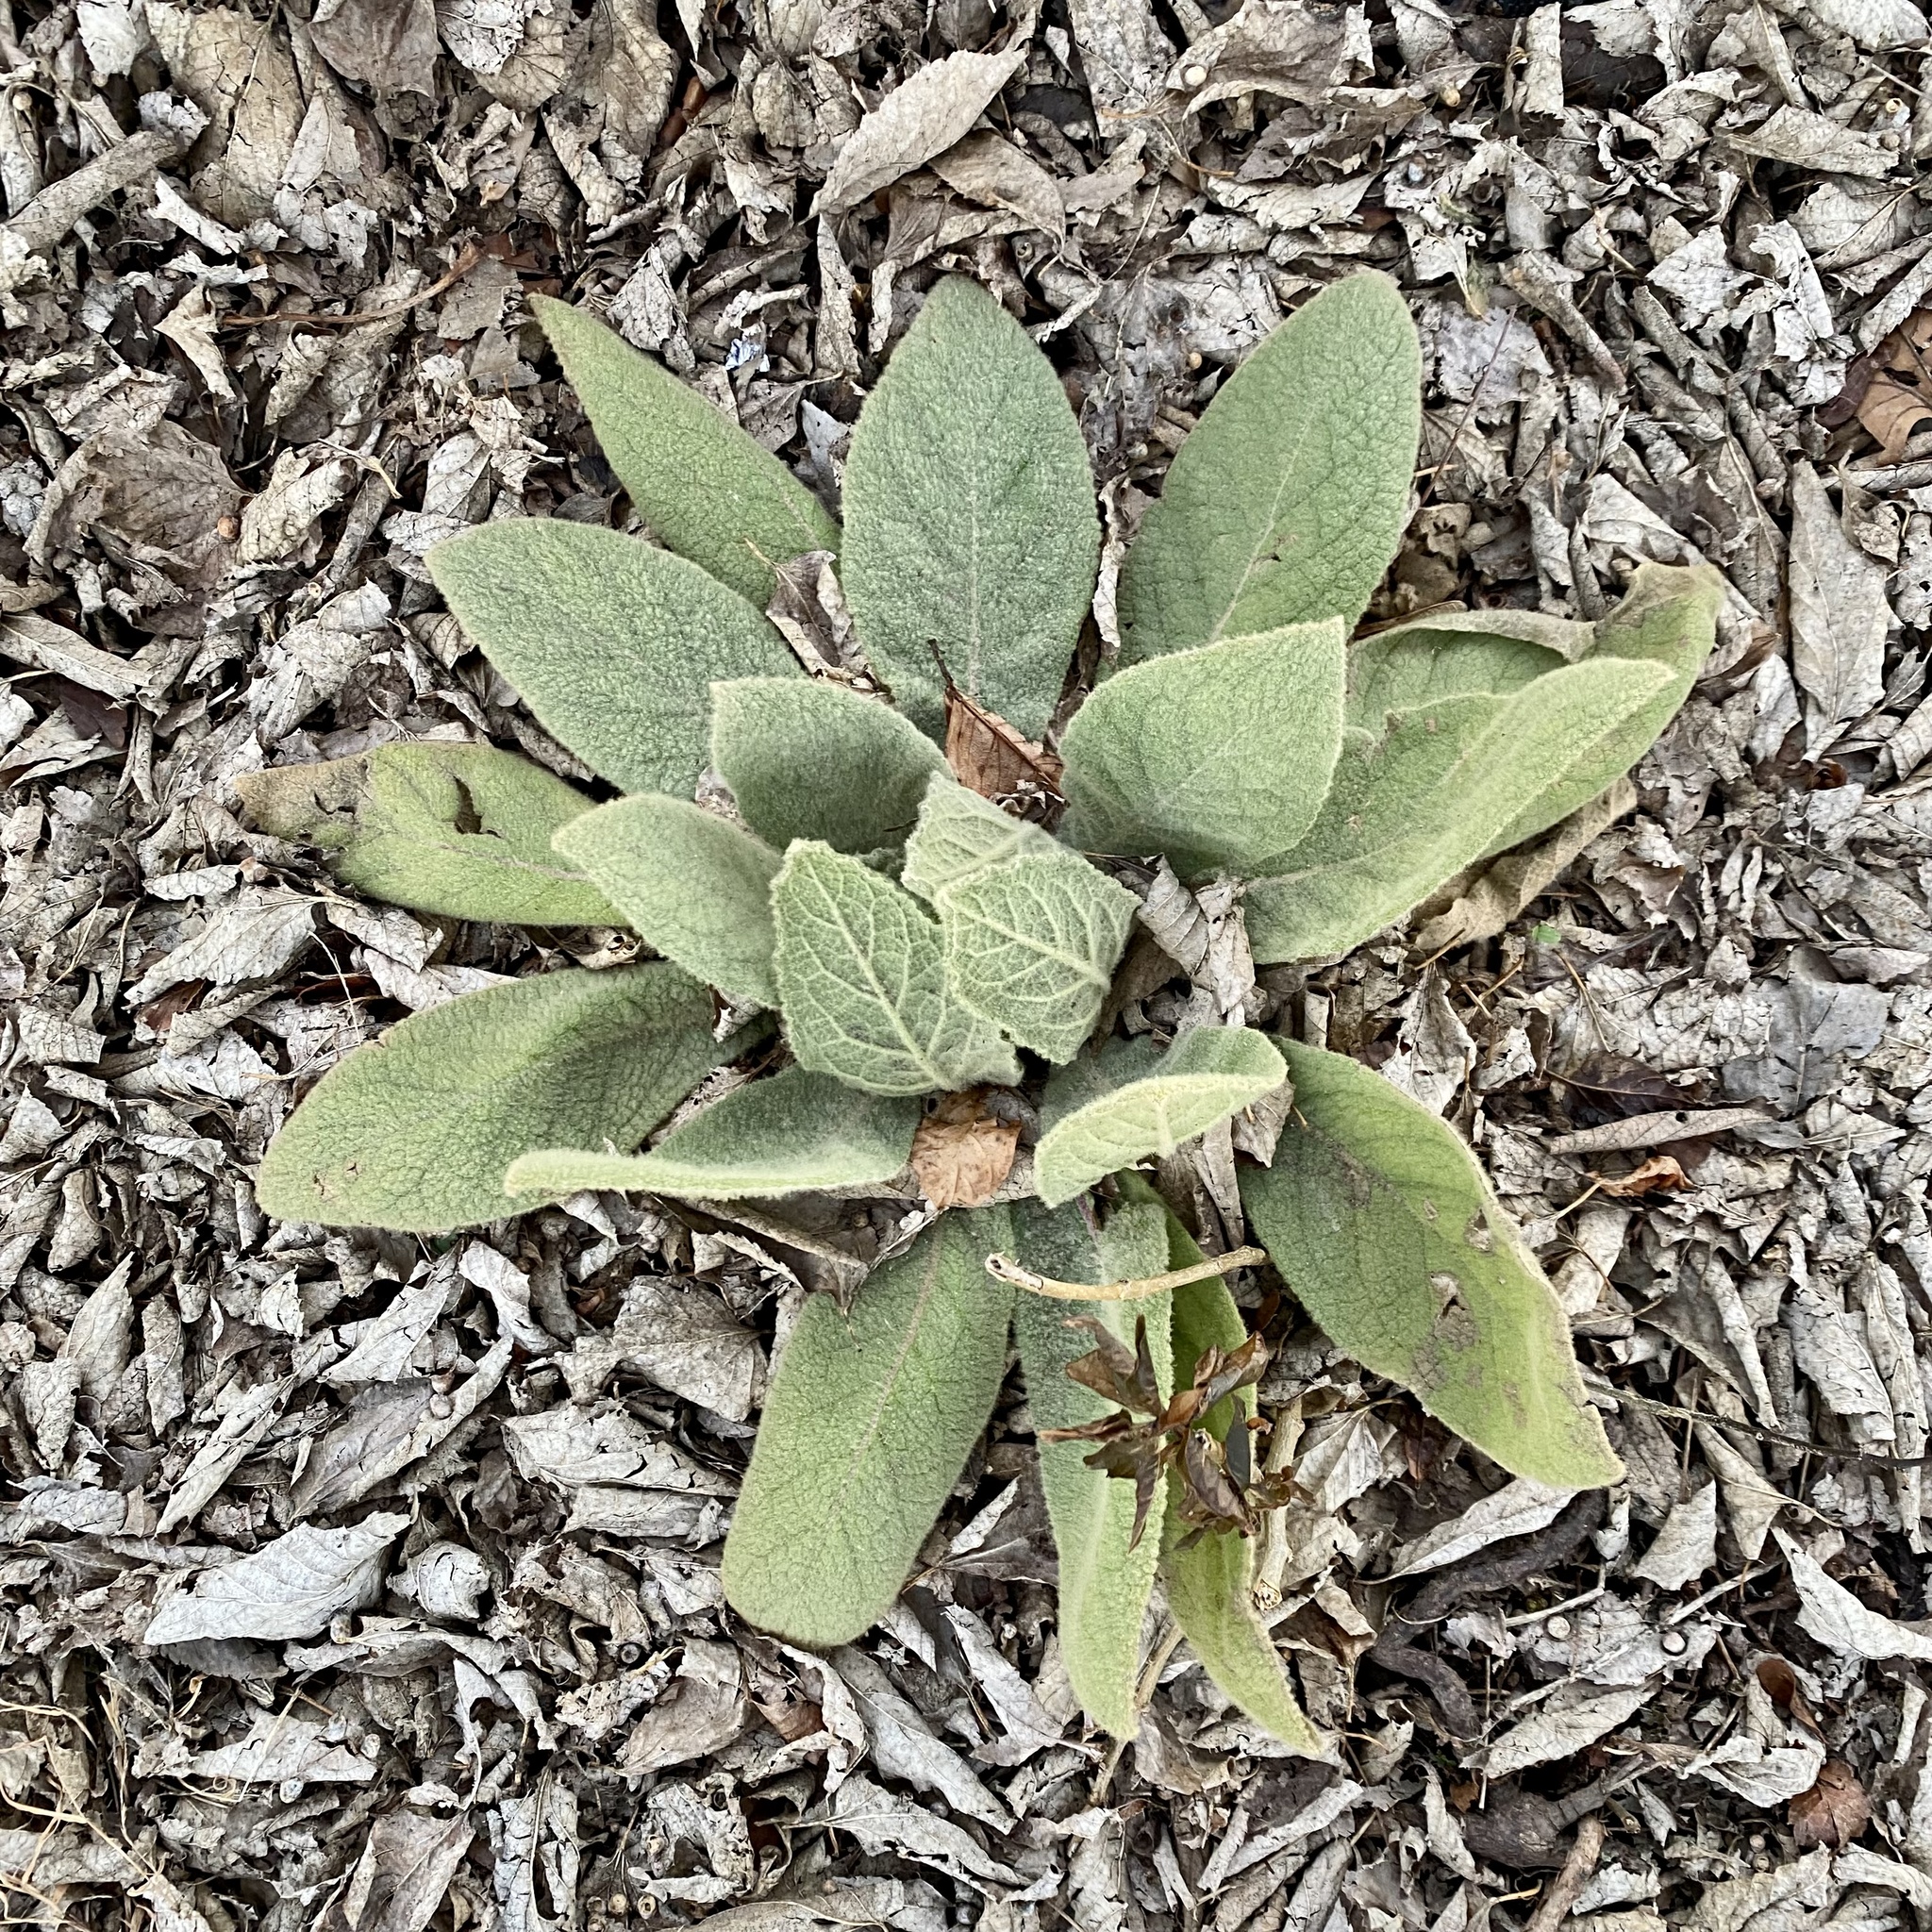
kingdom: Plantae
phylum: Tracheophyta
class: Magnoliopsida
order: Lamiales
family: Scrophulariaceae
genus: Verbascum
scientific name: Verbascum thapsus
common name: Common mullein
